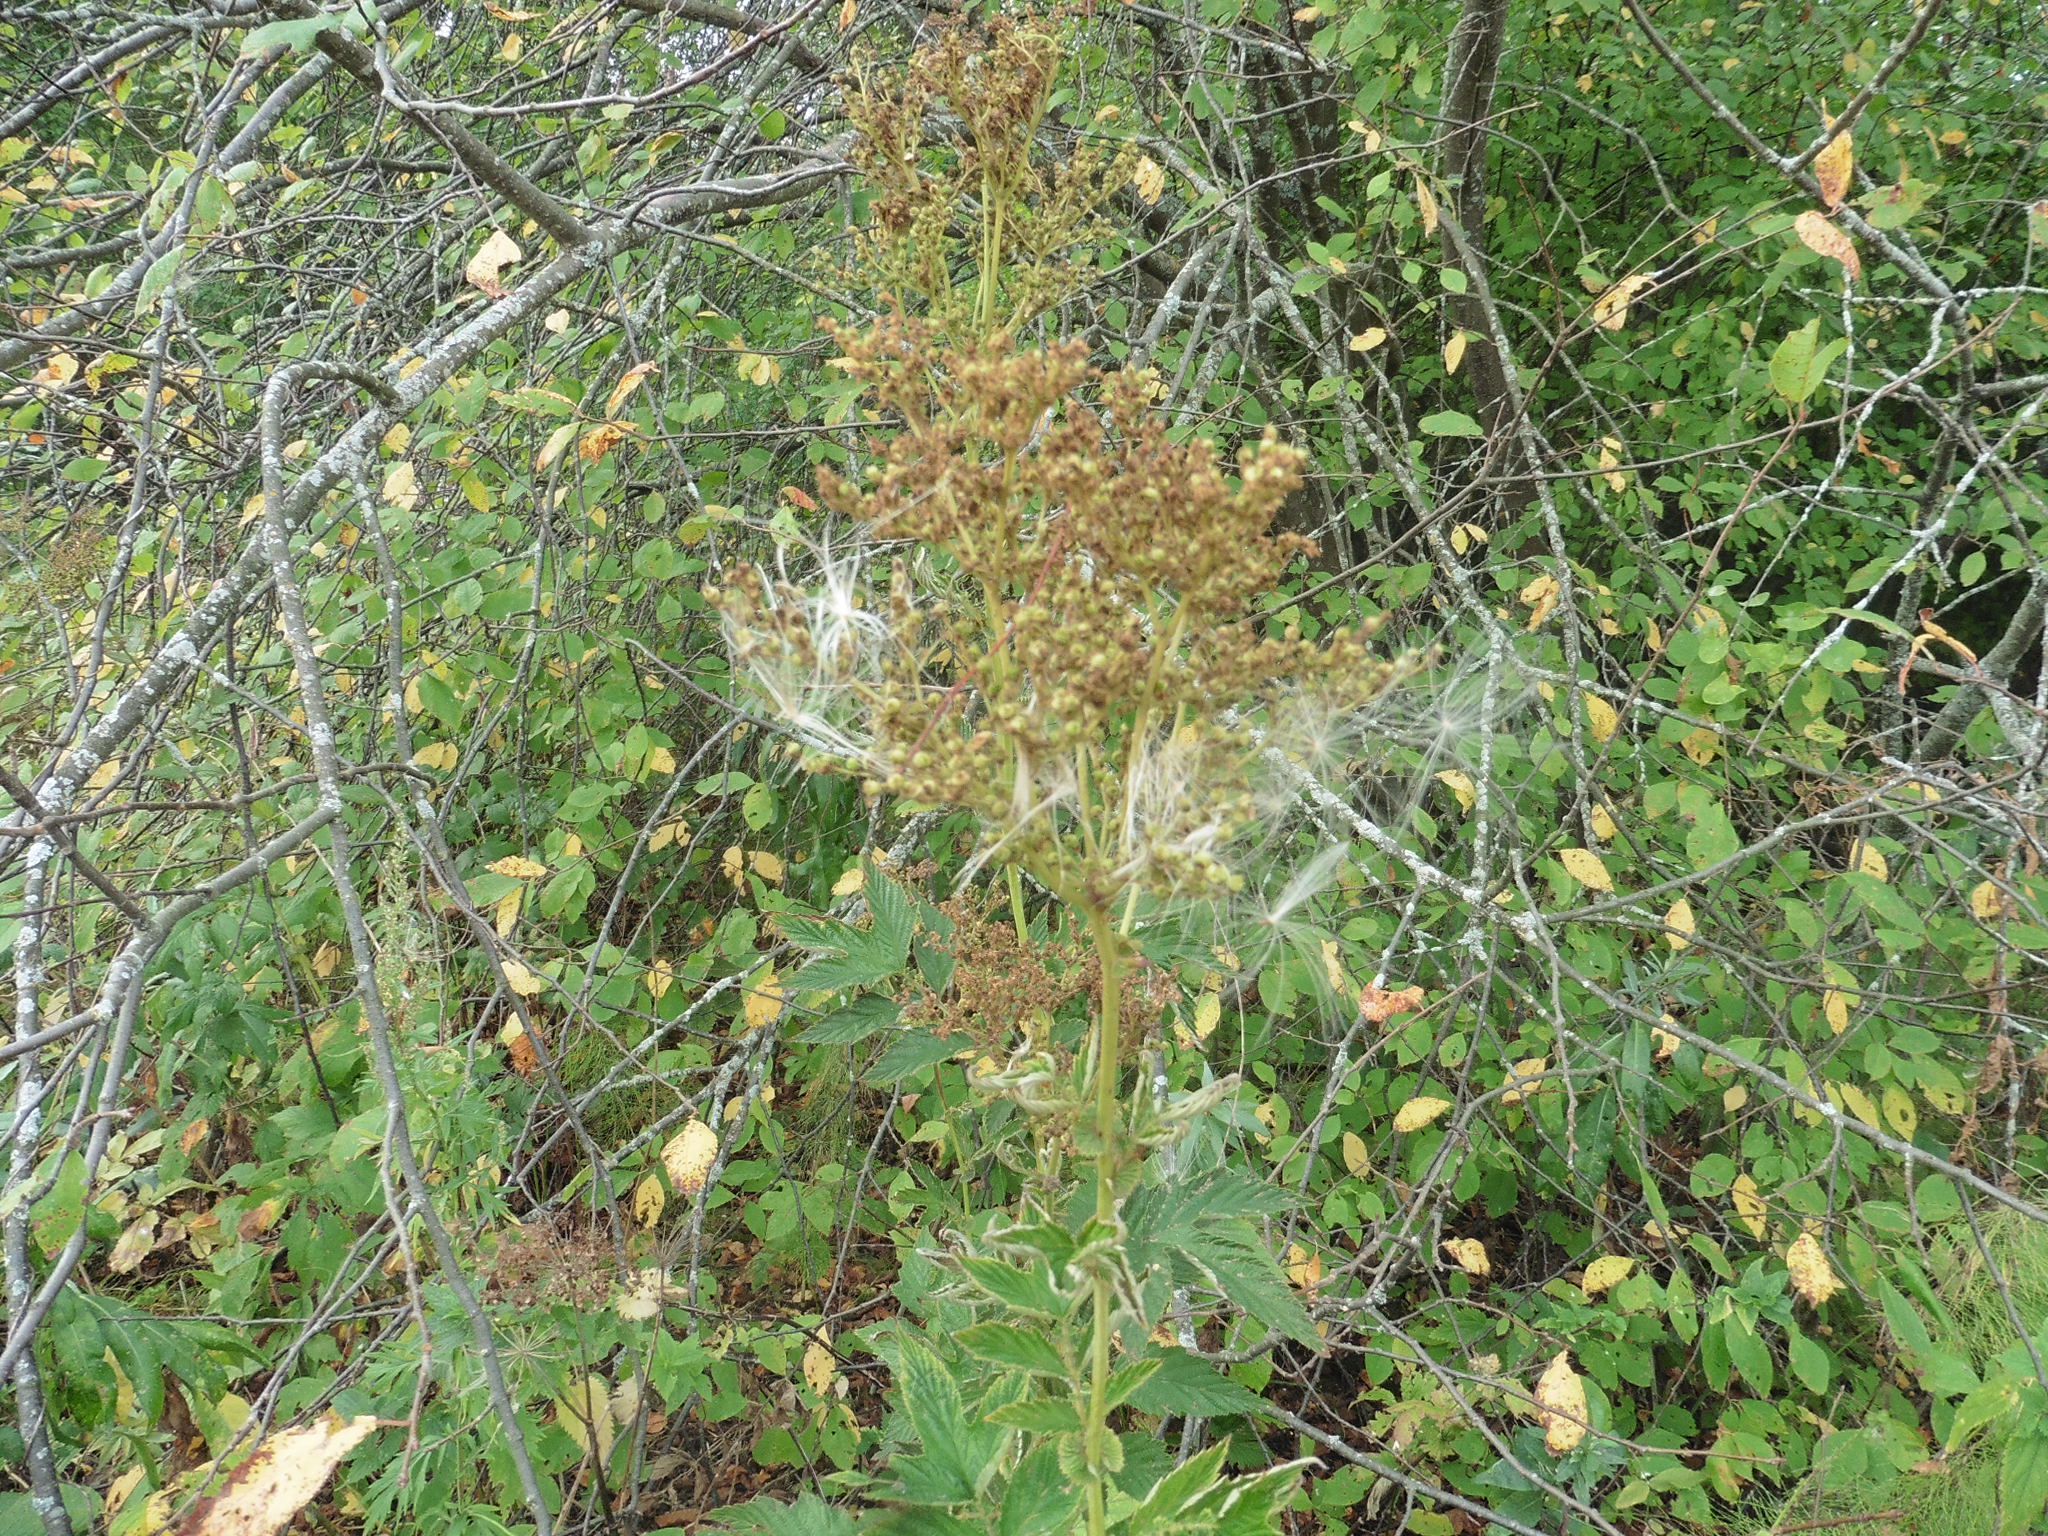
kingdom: Plantae
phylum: Tracheophyta
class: Magnoliopsida
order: Rosales
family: Rosaceae
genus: Filipendula
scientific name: Filipendula ulmaria
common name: Meadowsweet
